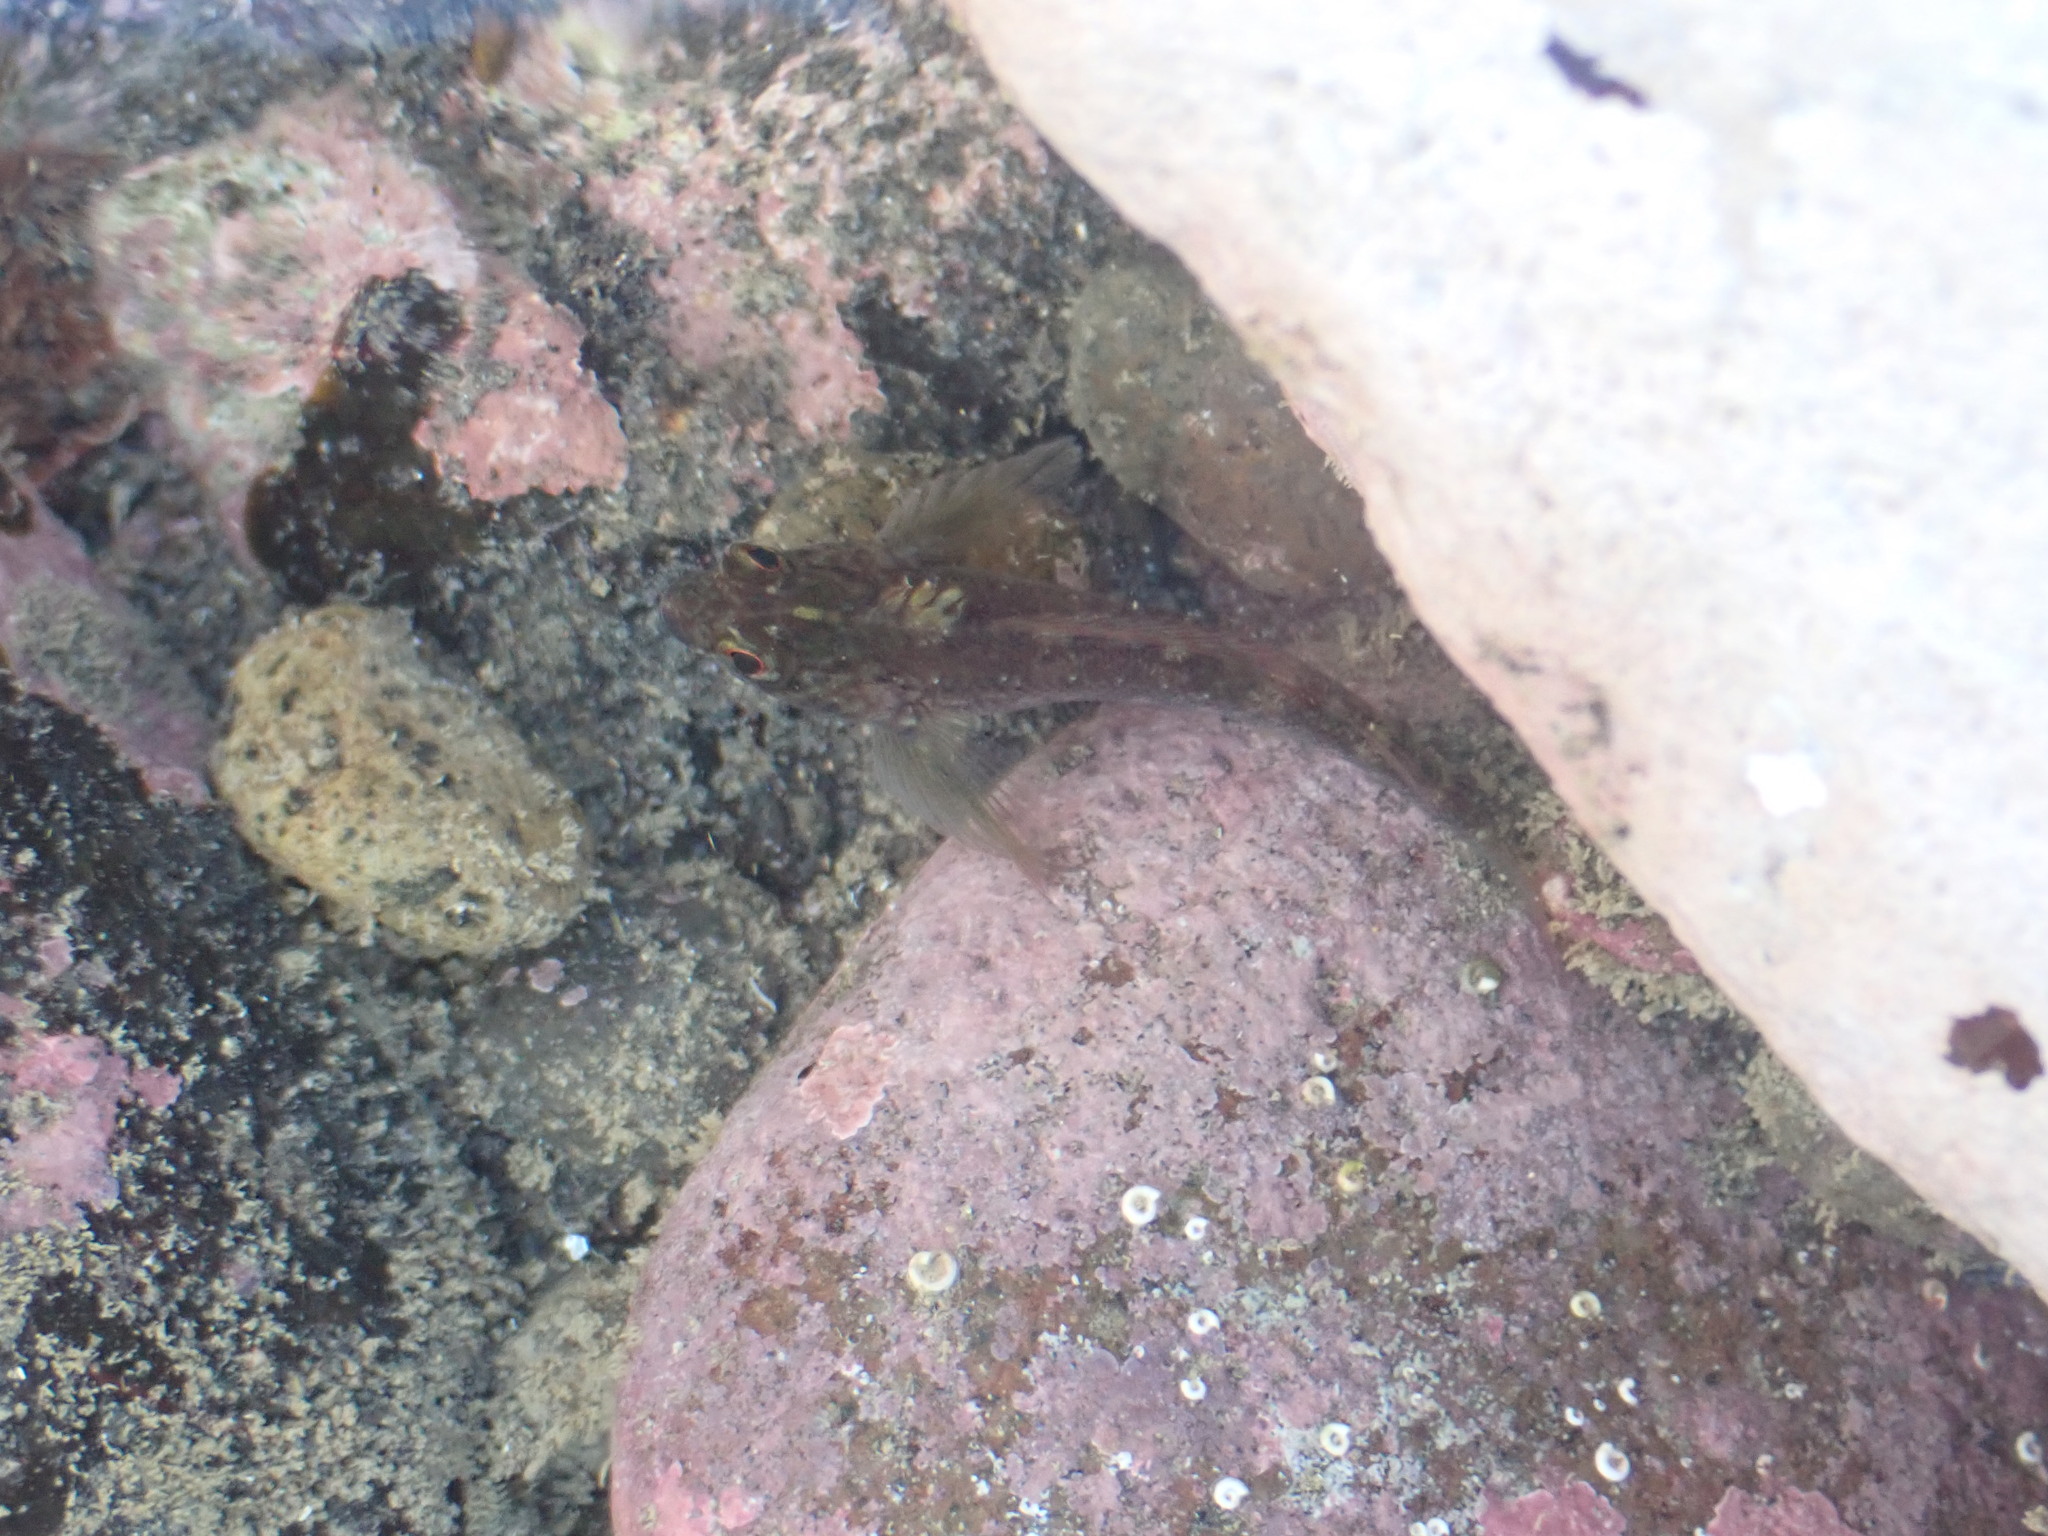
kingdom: Animalia
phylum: Chordata
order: Perciformes
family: Tripterygiidae
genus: Forsterygion
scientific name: Forsterygion lapillum
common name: Common triplefin
